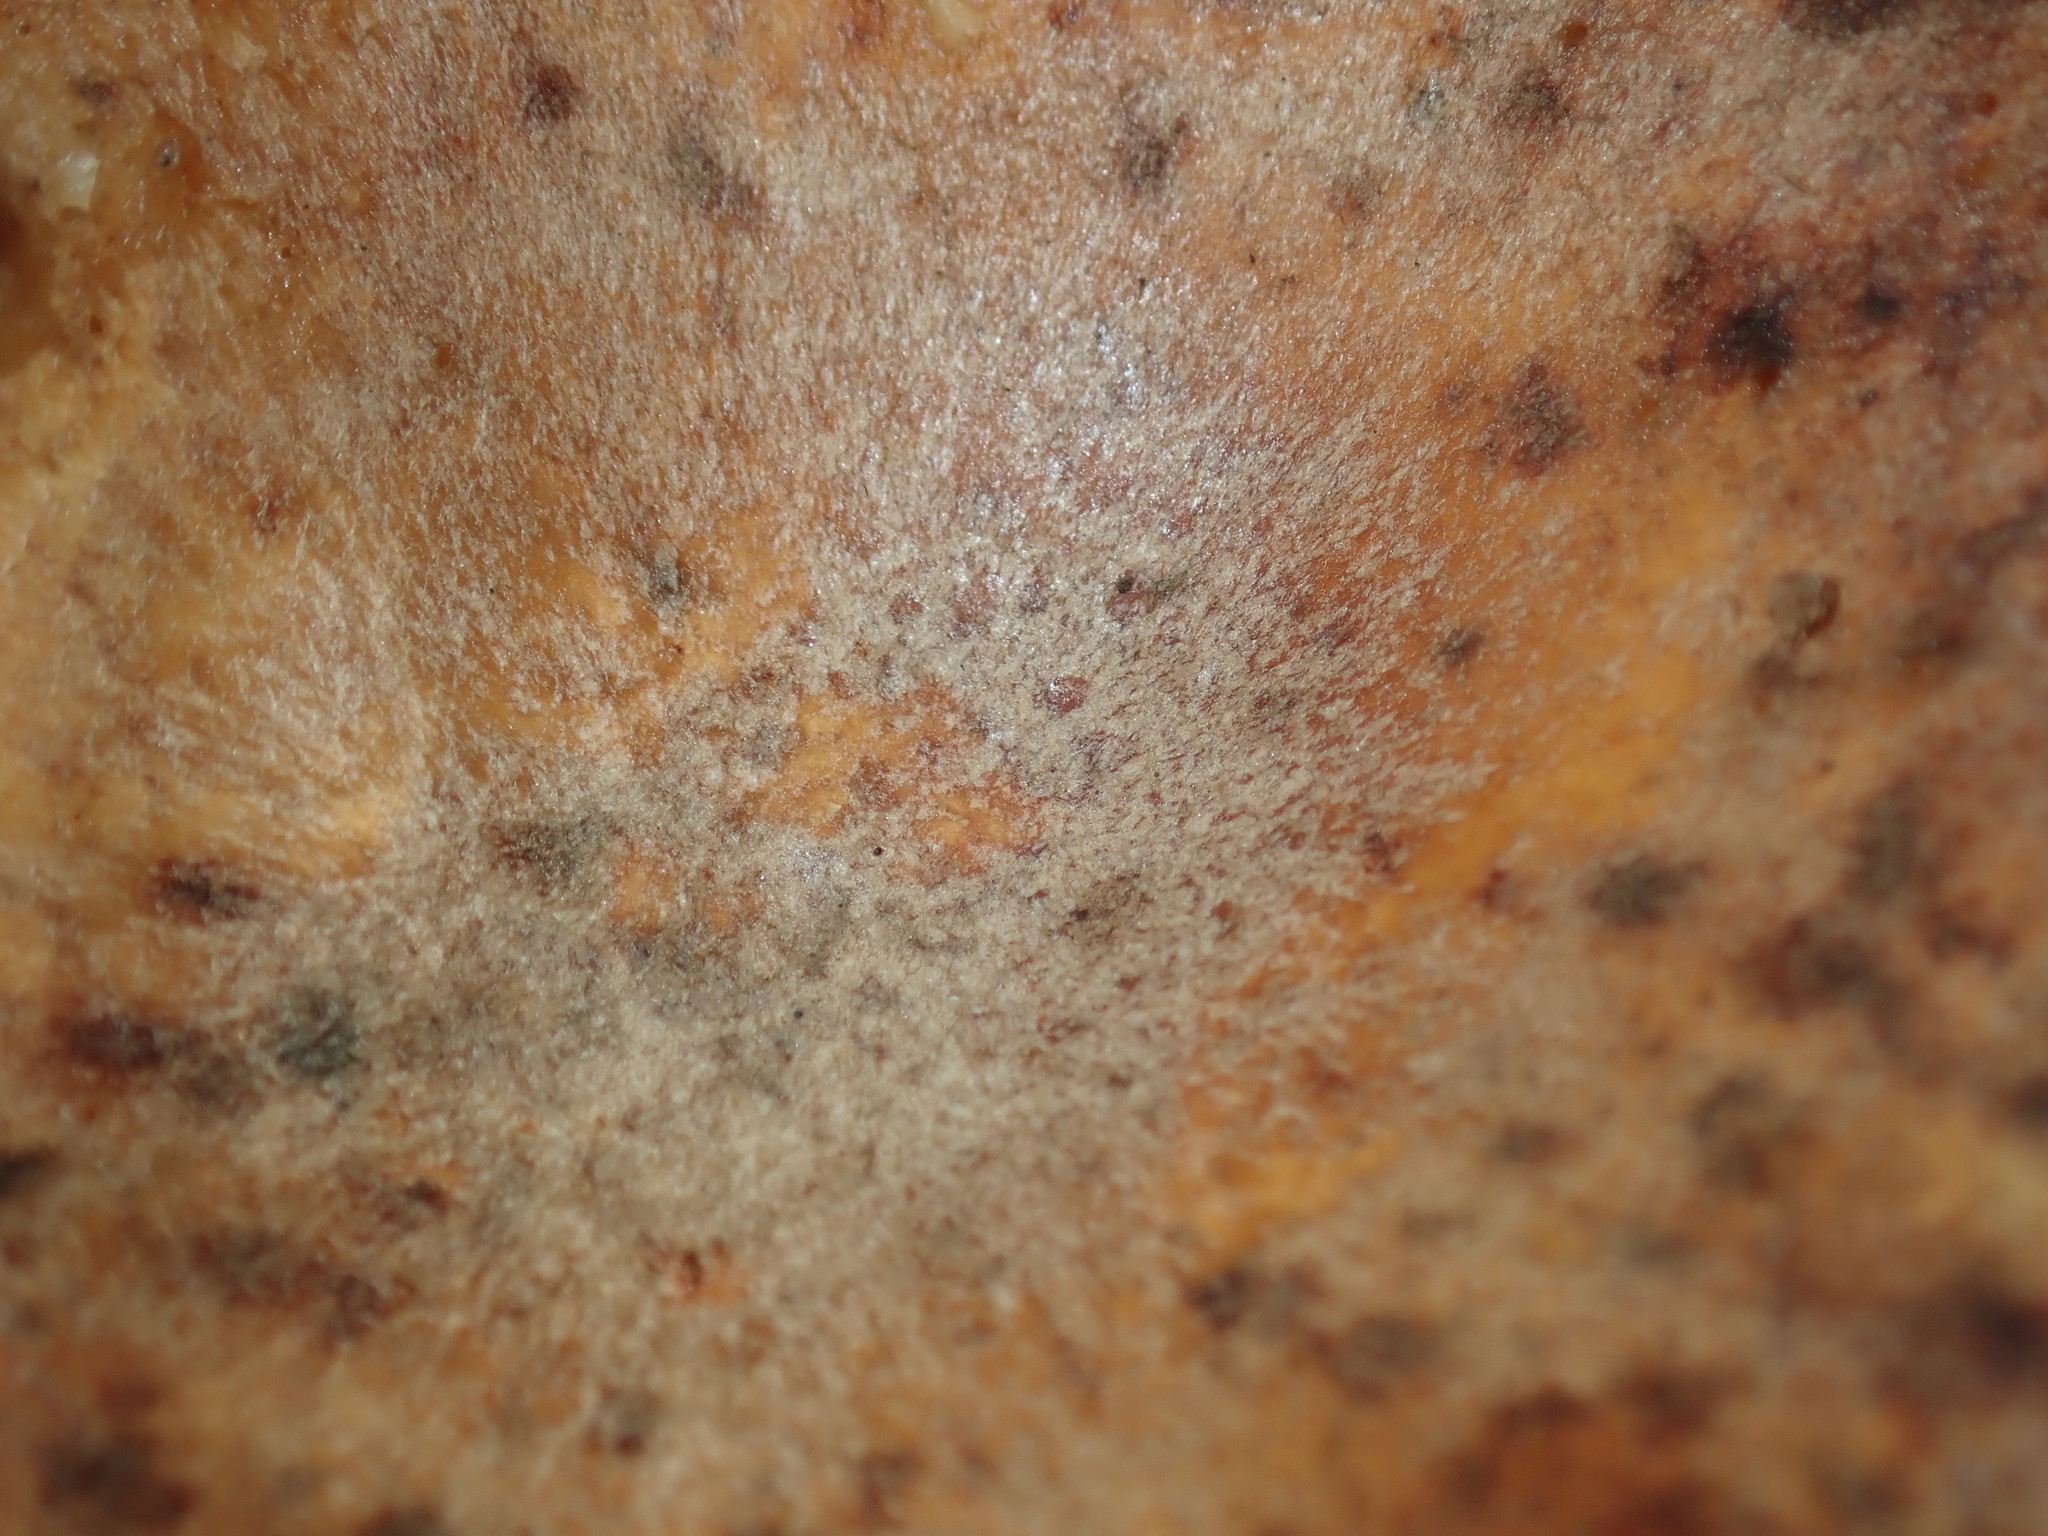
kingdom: Fungi
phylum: Basidiomycota
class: Agaricomycetes
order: Polyporales
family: Polyporaceae
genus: Cerioporus
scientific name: Cerioporus varius
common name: Elegant polypore
